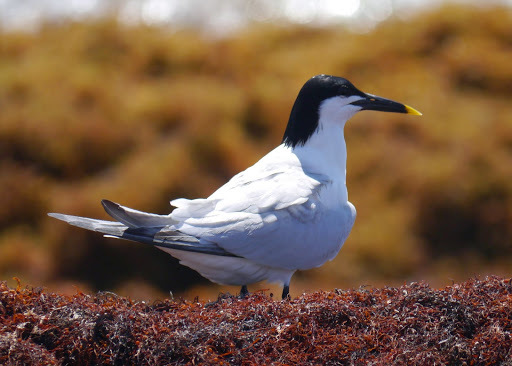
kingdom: Animalia
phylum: Chordata
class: Aves
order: Charadriiformes
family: Laridae
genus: Thalasseus
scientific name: Thalasseus sandvicensis
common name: Sandwich tern
